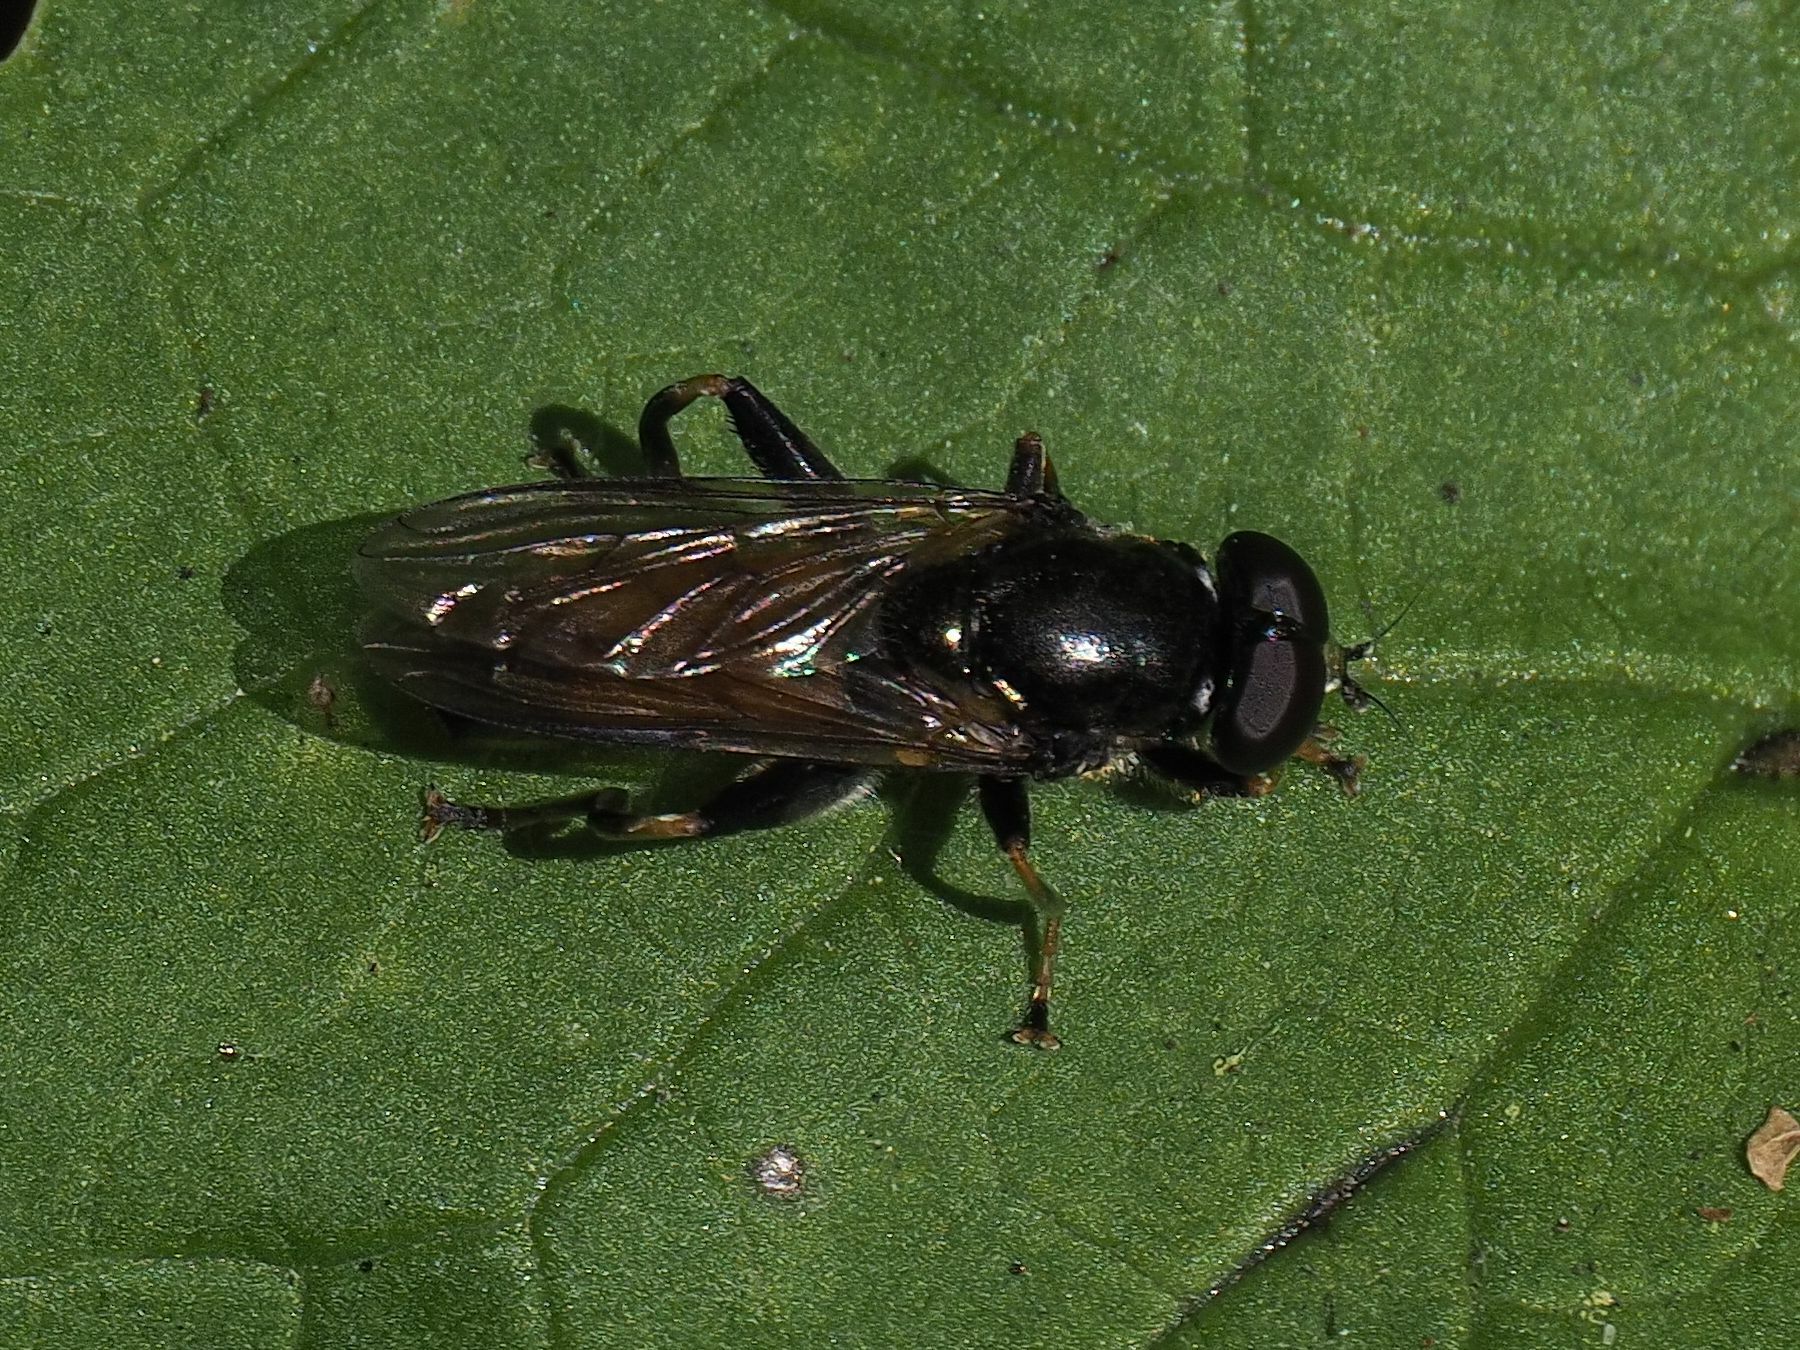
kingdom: Animalia
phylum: Arthropoda
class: Insecta
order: Diptera
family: Syrphidae
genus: Xylota
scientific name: Xylota segnis
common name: Brown-toed forest fly
